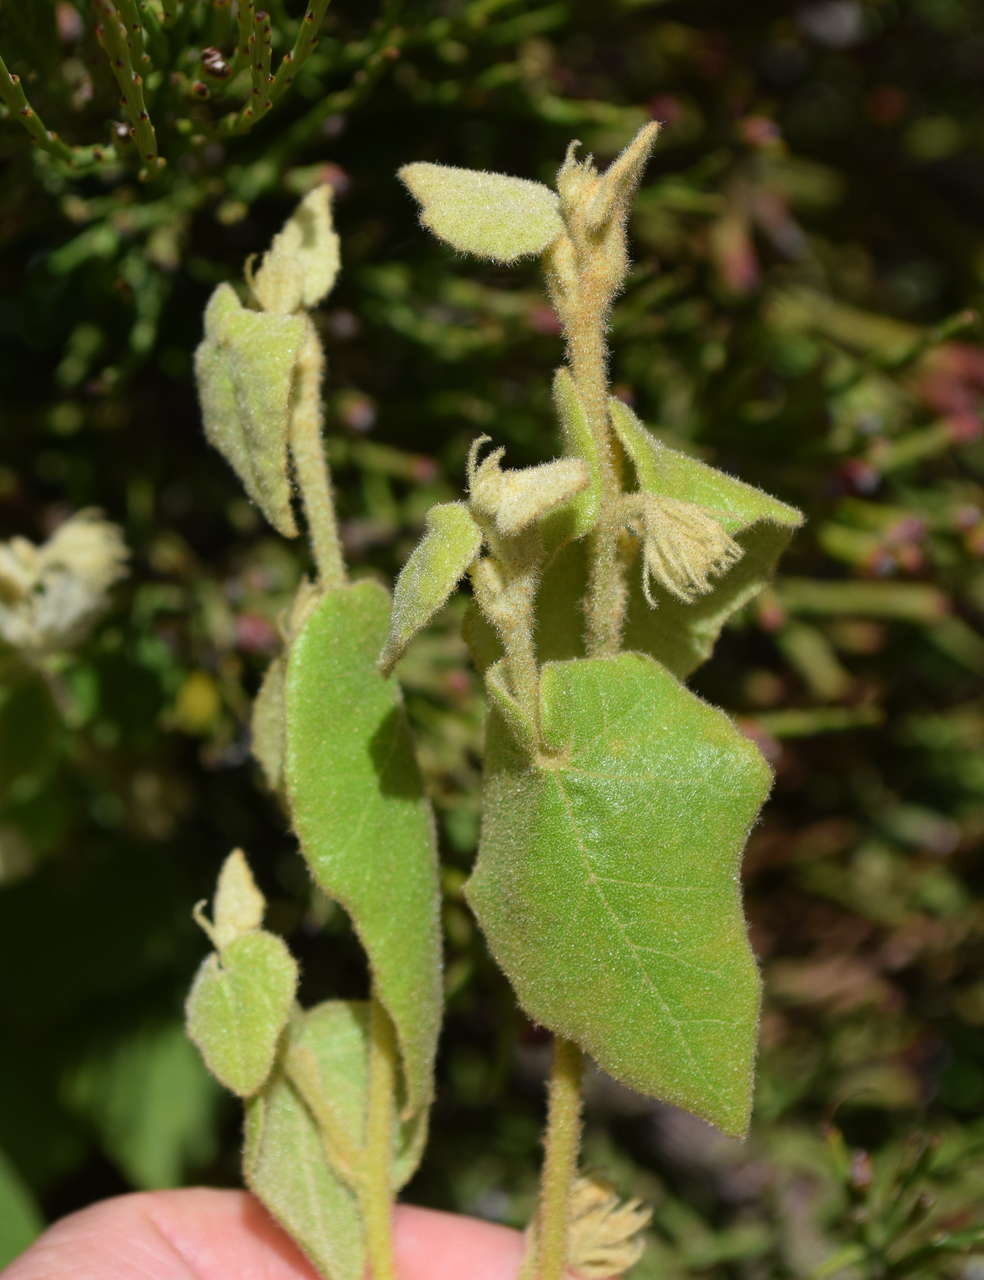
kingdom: Plantae
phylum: Tracheophyta
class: Magnoliopsida
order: Malvales
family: Malvaceae
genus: Lasiopetalum
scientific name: Lasiopetalum schulzenii
